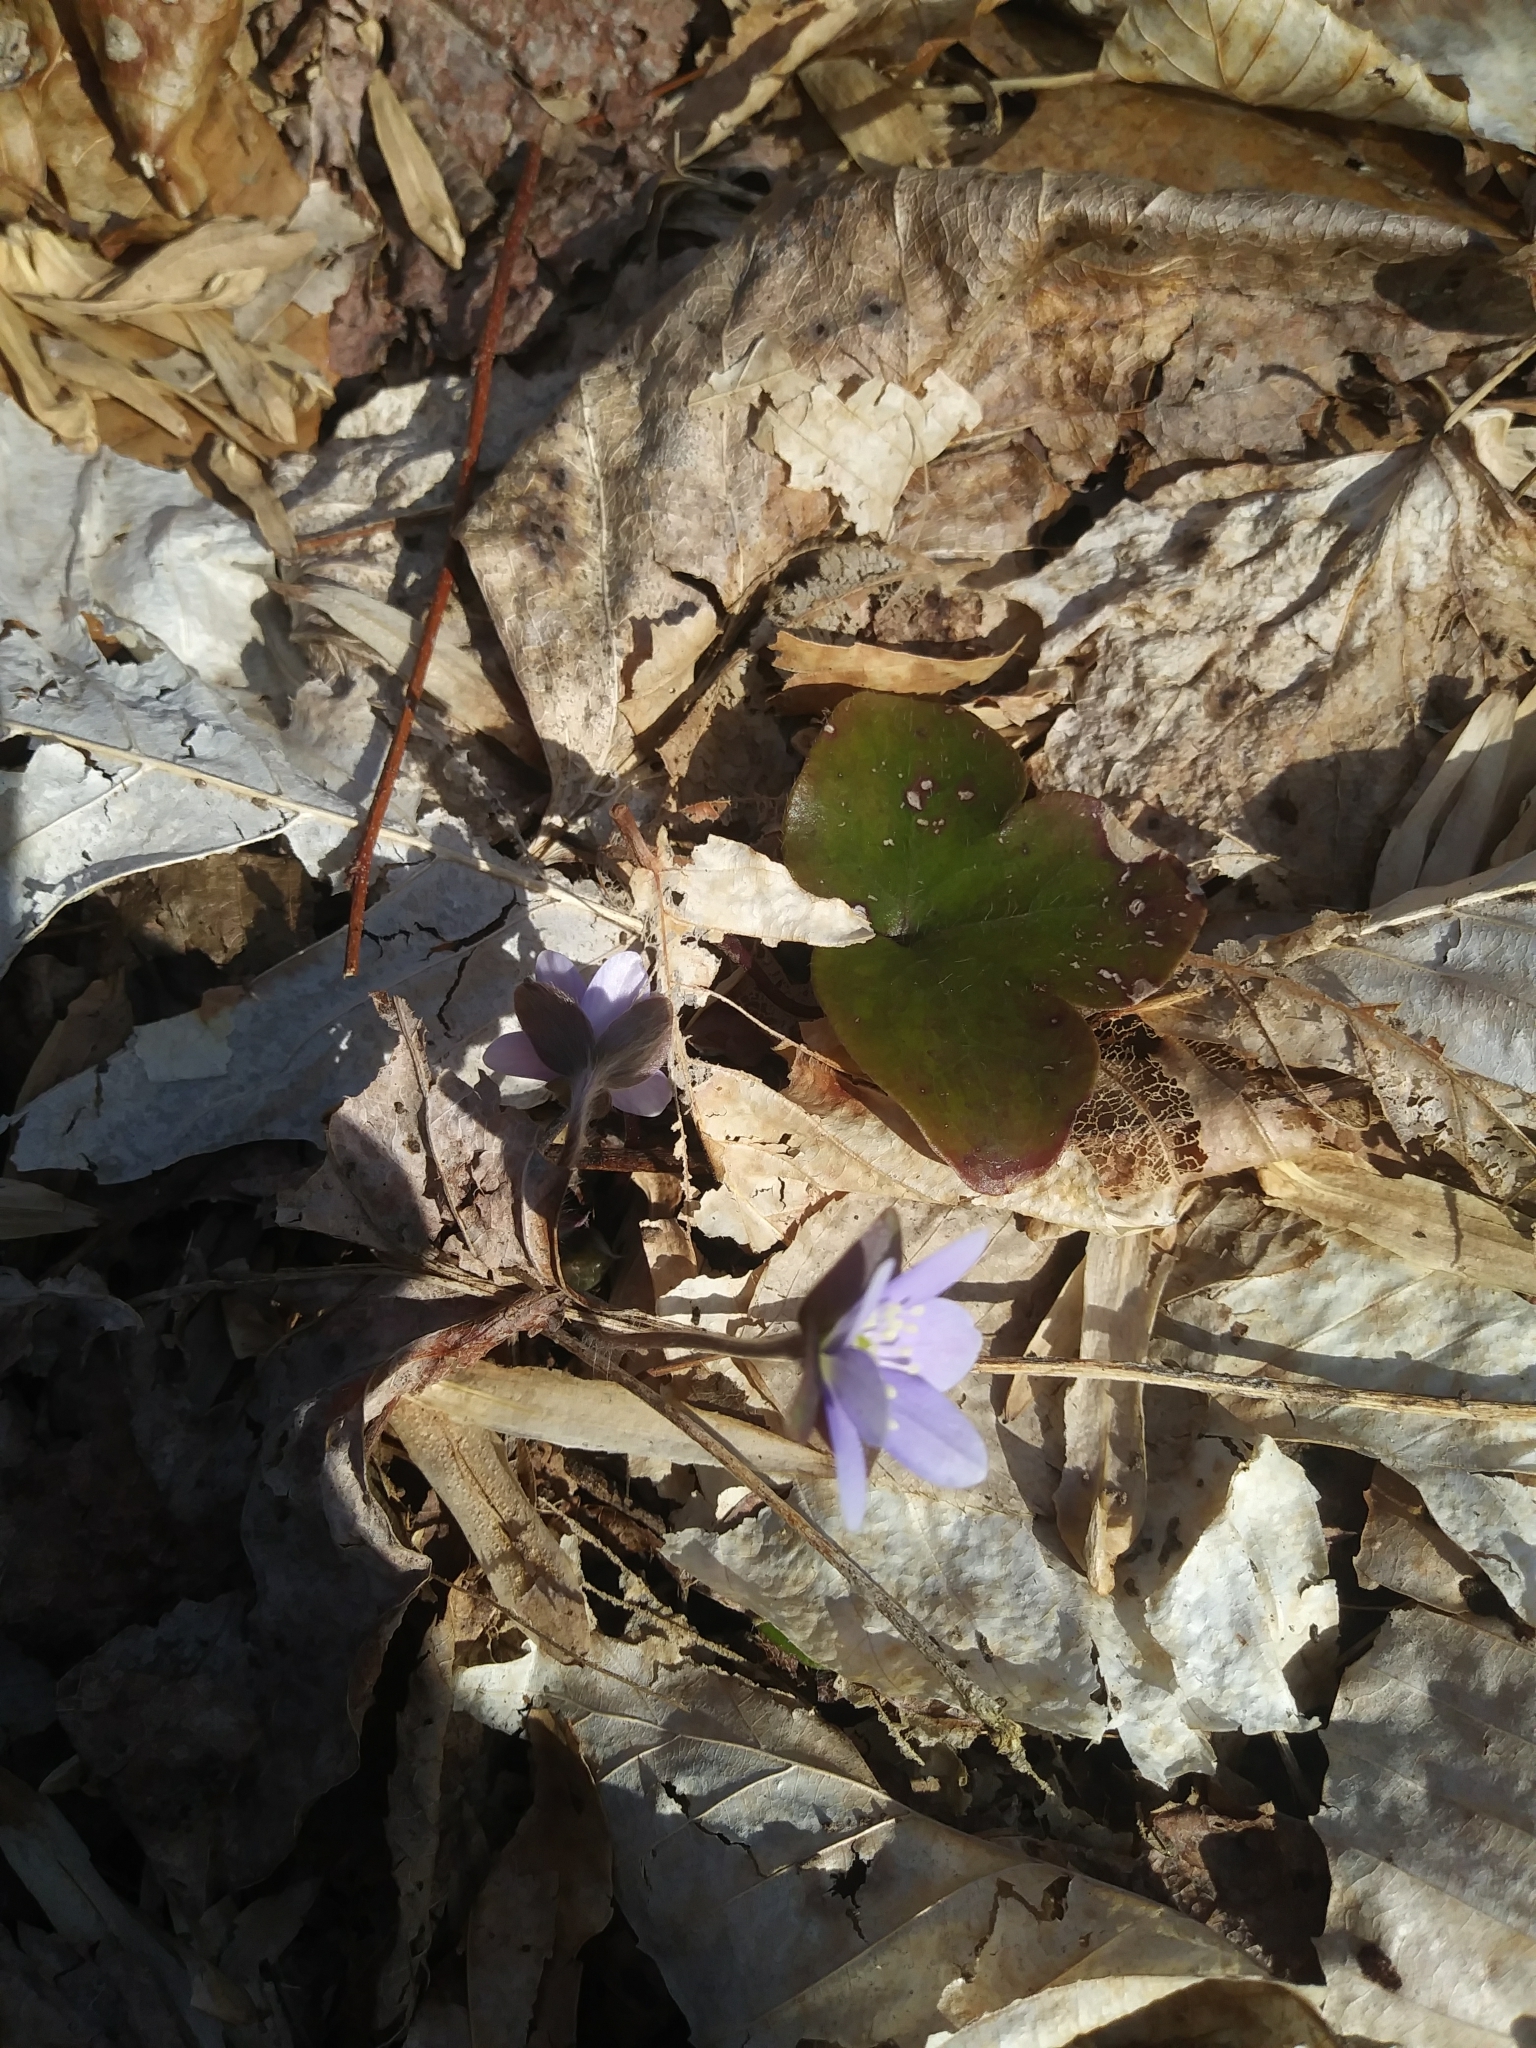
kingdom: Plantae
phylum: Tracheophyta
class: Magnoliopsida
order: Ranunculales
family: Ranunculaceae
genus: Hepatica
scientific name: Hepatica americana
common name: American hepatica
